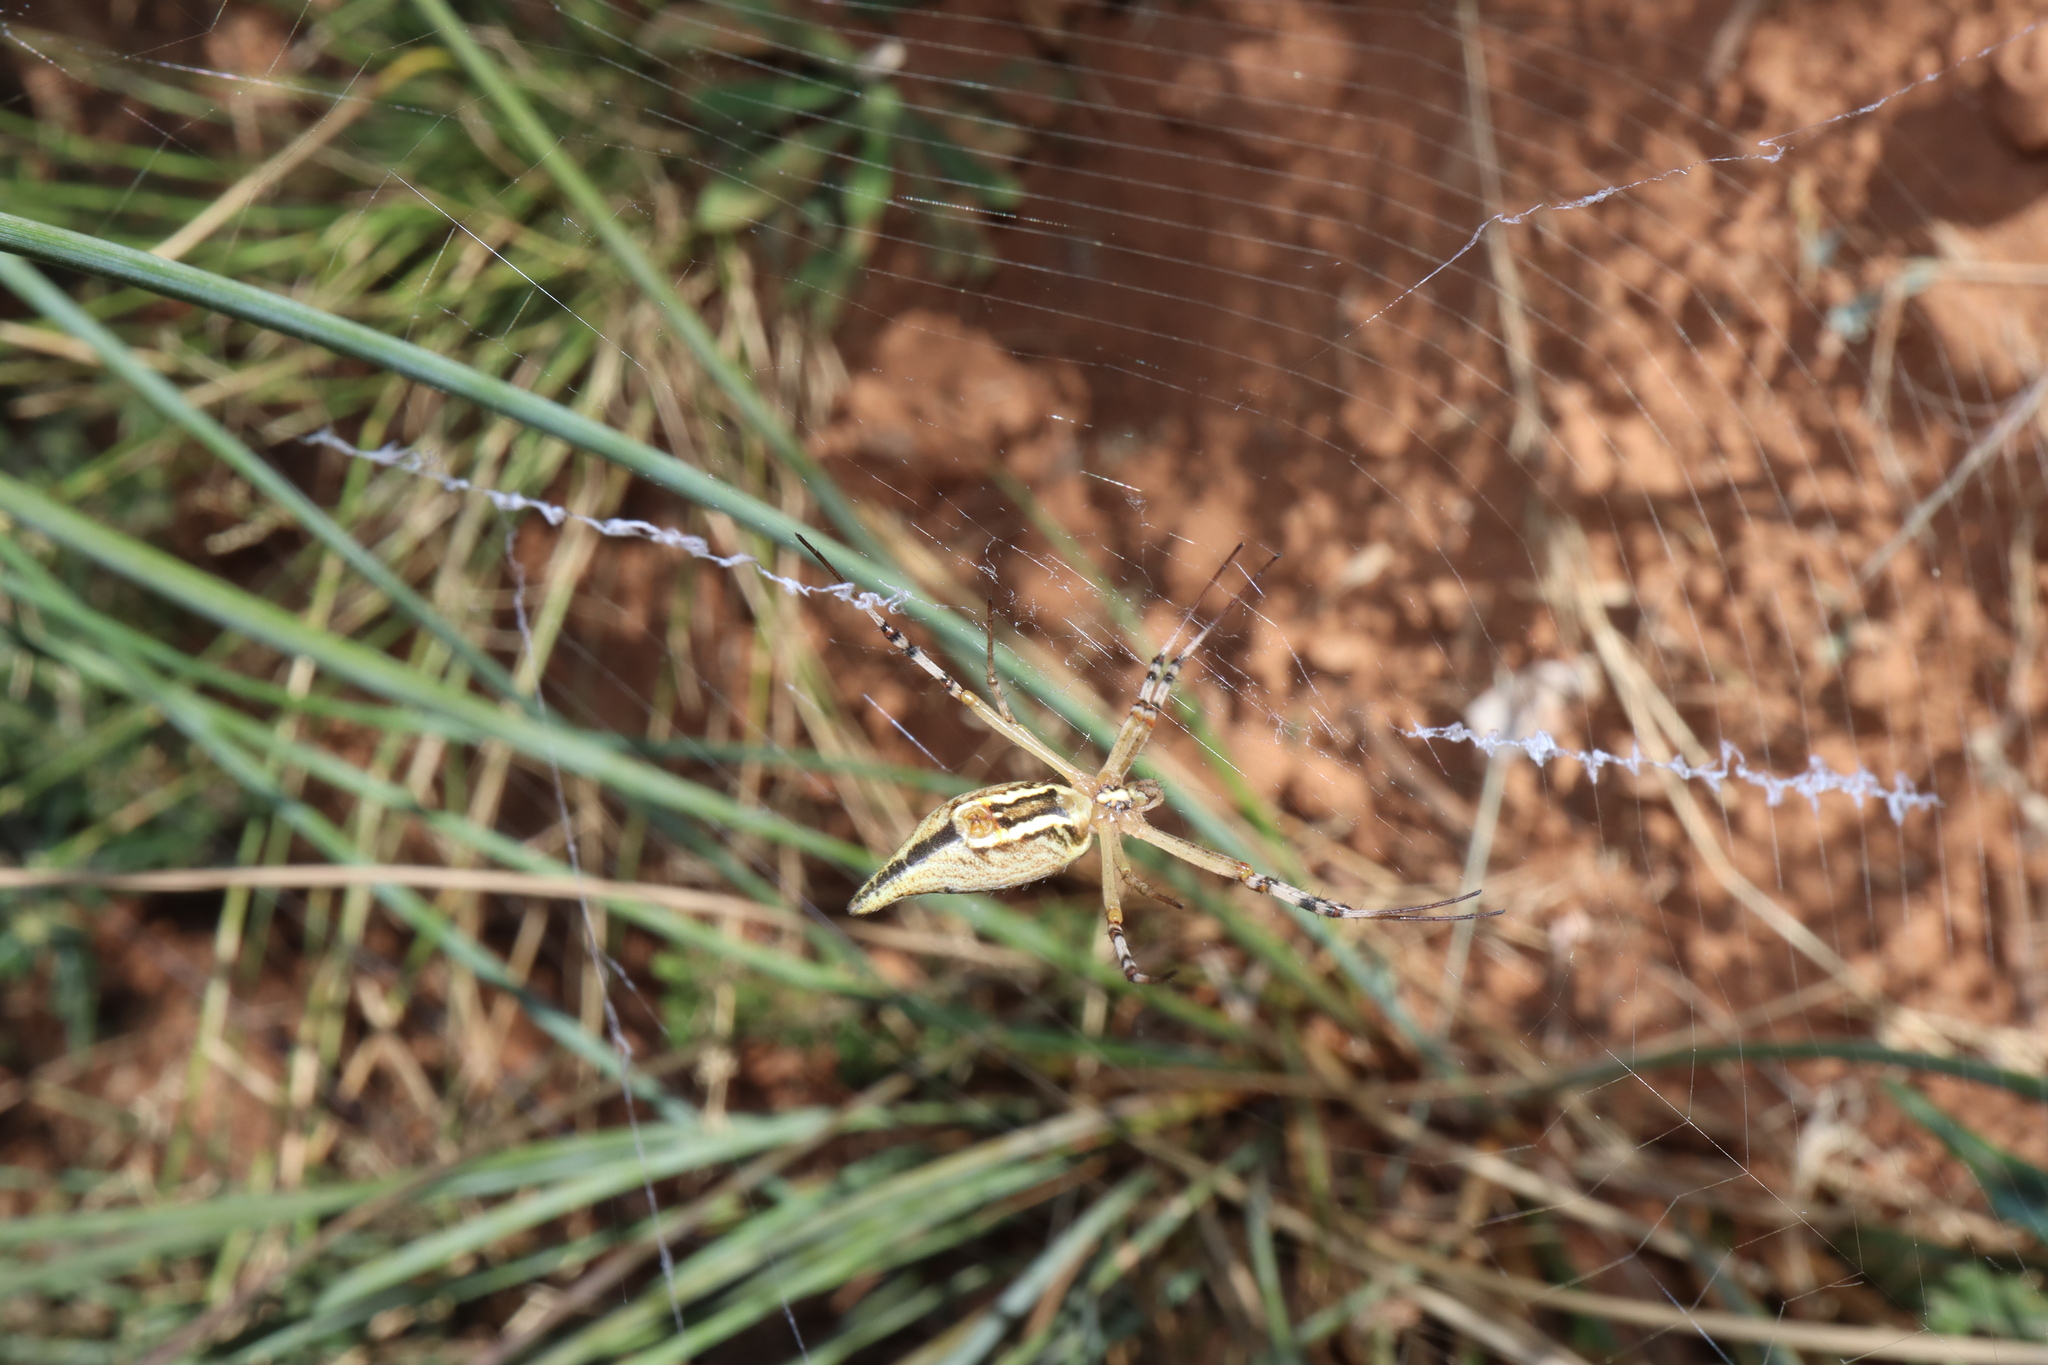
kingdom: Animalia
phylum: Arthropoda
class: Arachnida
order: Araneae
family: Araneidae
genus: Argiope
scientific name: Argiope protensa
